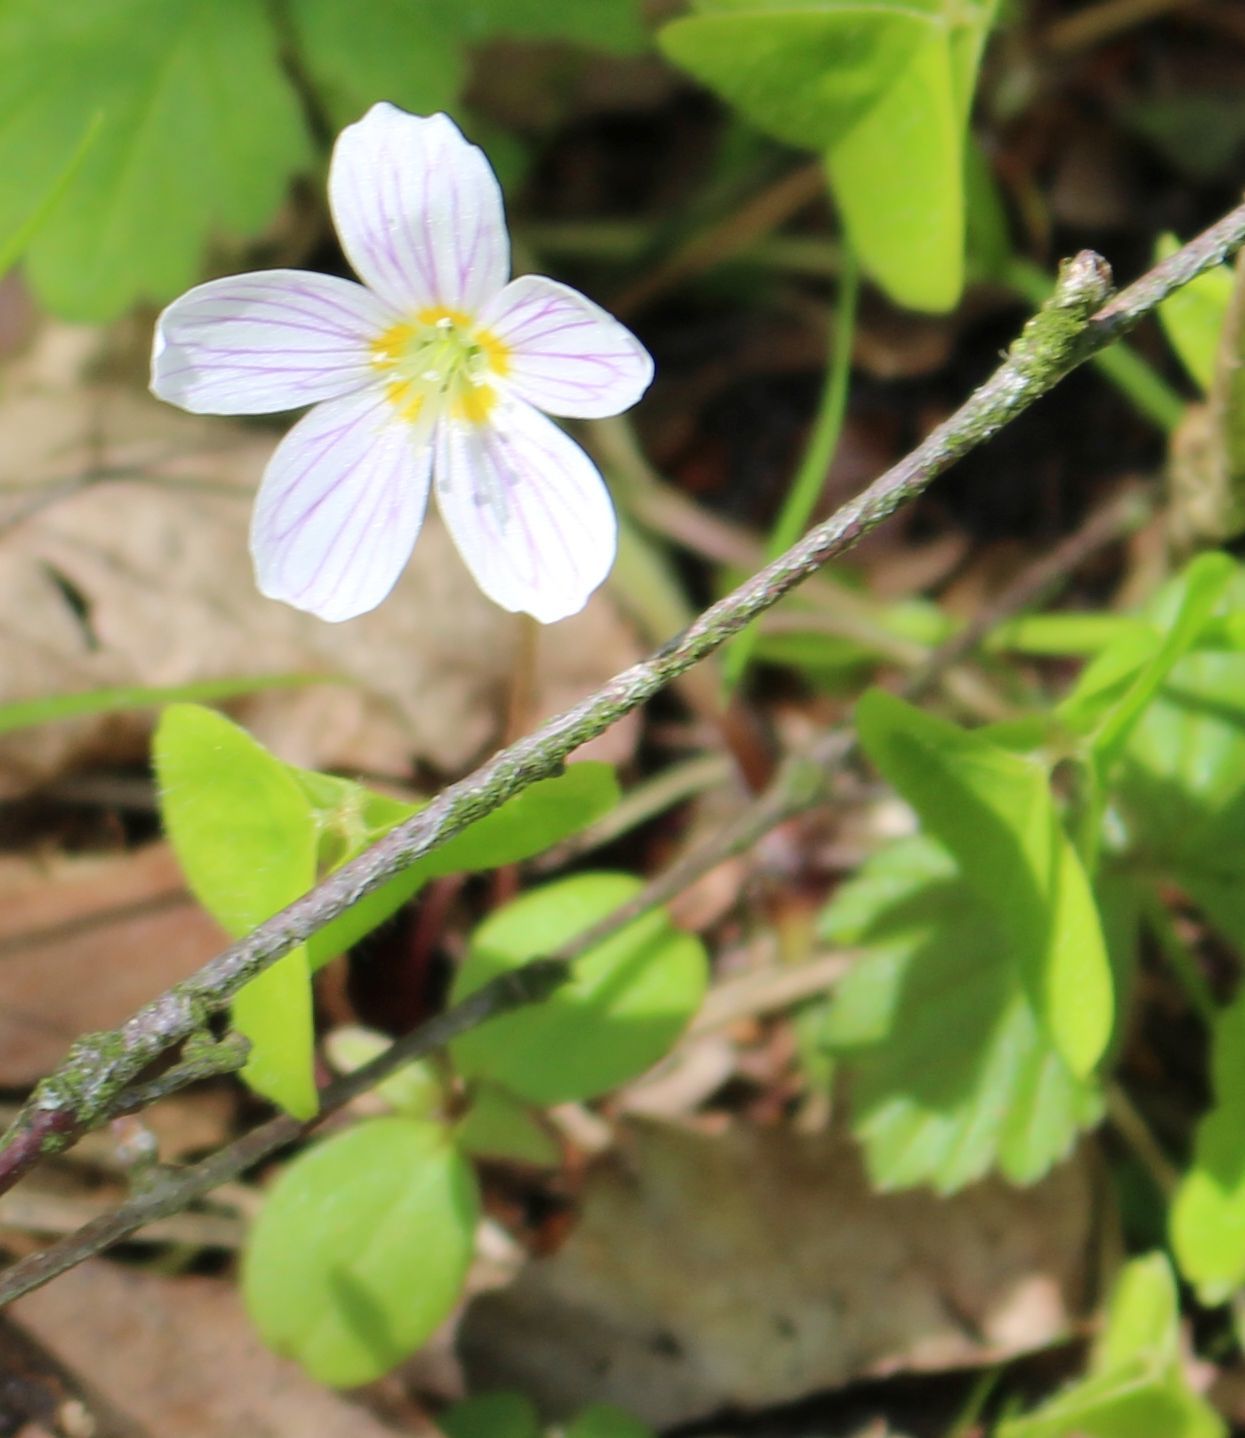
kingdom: Plantae
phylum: Tracheophyta
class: Magnoliopsida
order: Oxalidales
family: Oxalidaceae
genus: Oxalis
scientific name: Oxalis acetosella
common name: Wood-sorrel
